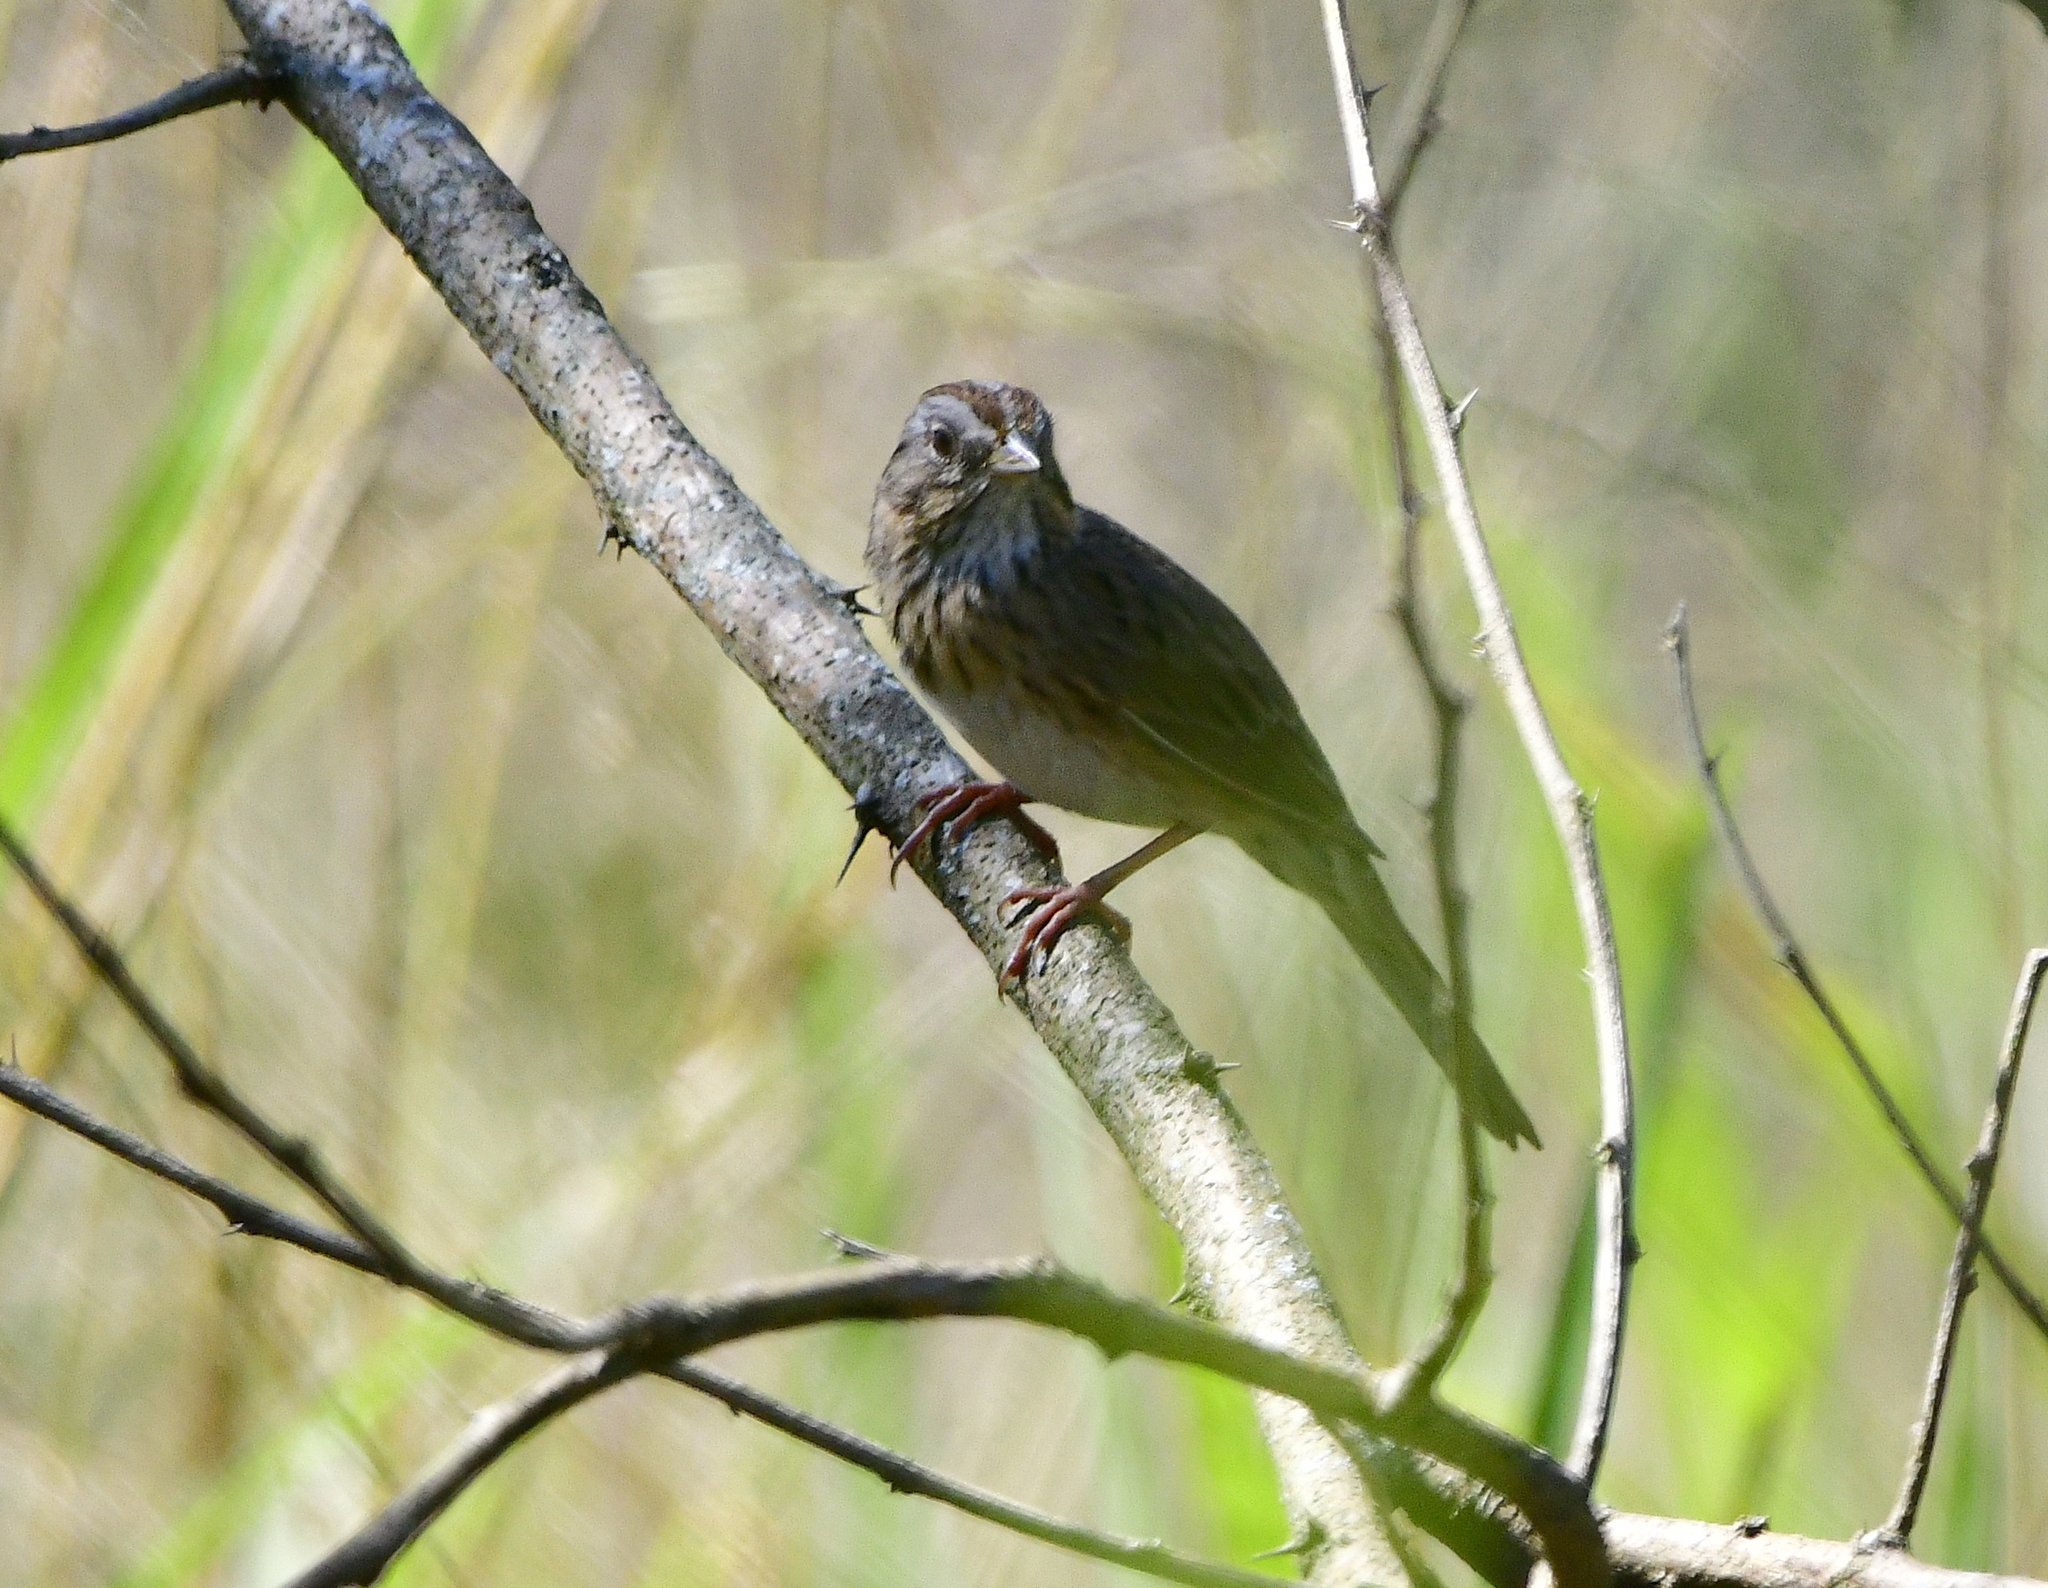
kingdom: Animalia
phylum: Chordata
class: Aves
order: Passeriformes
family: Passerellidae
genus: Melospiza
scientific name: Melospiza lincolnii
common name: Lincoln's sparrow
